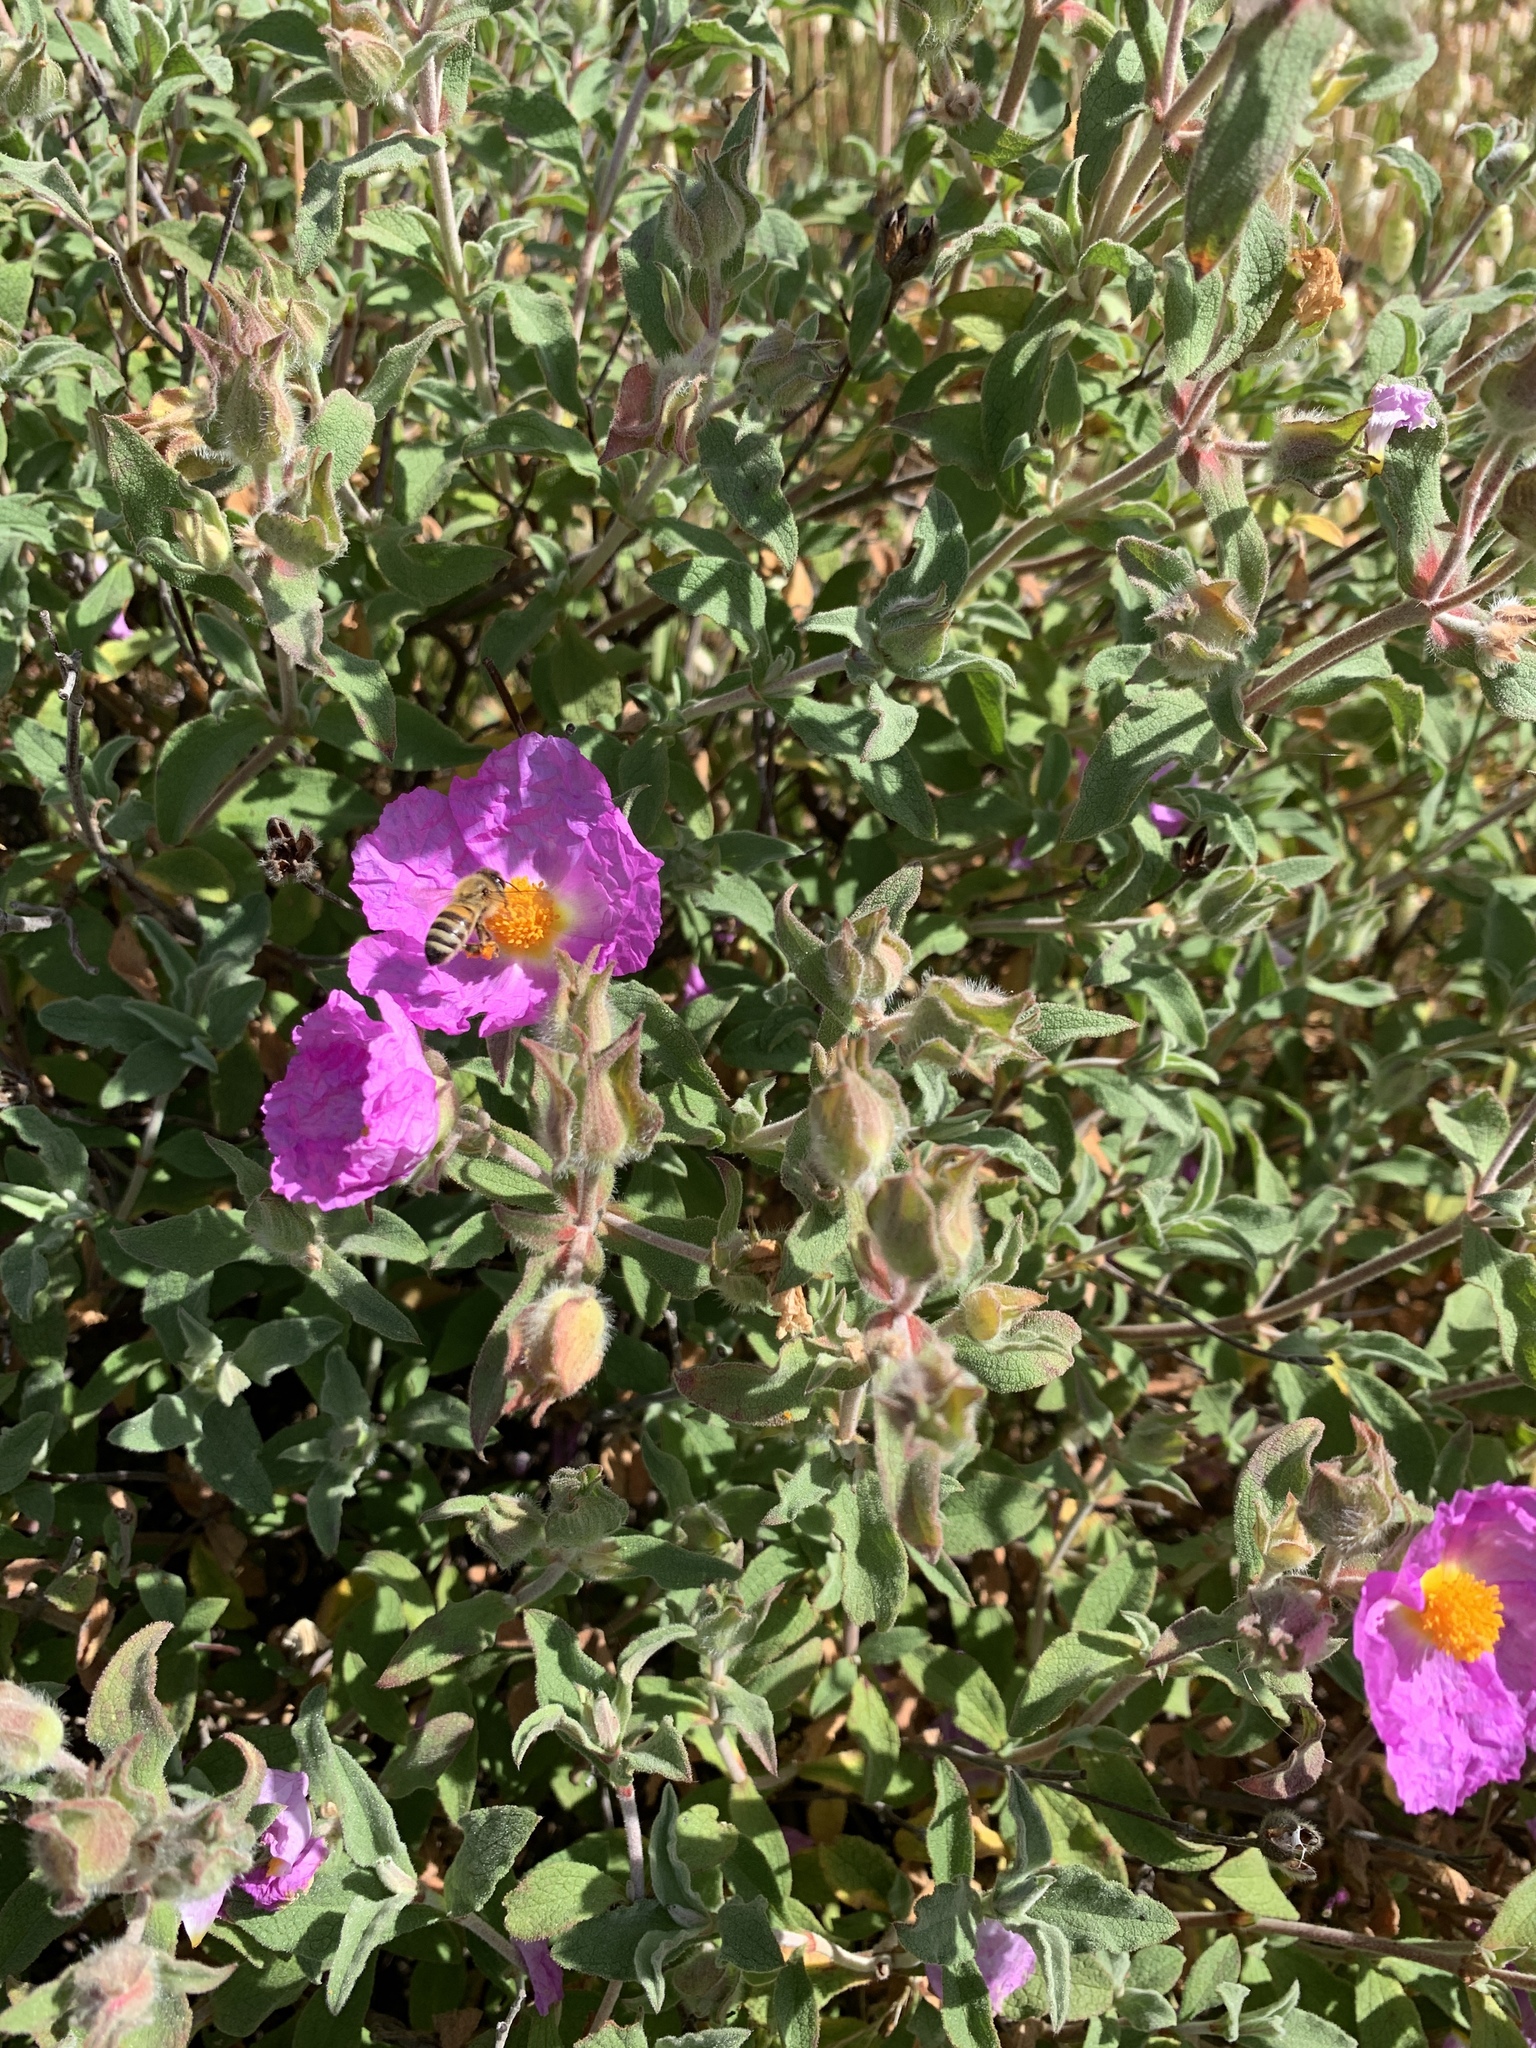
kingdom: Plantae
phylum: Tracheophyta
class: Magnoliopsida
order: Malvales
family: Cistaceae
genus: Cistus
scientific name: Cistus creticus
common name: Cretan rockrose
